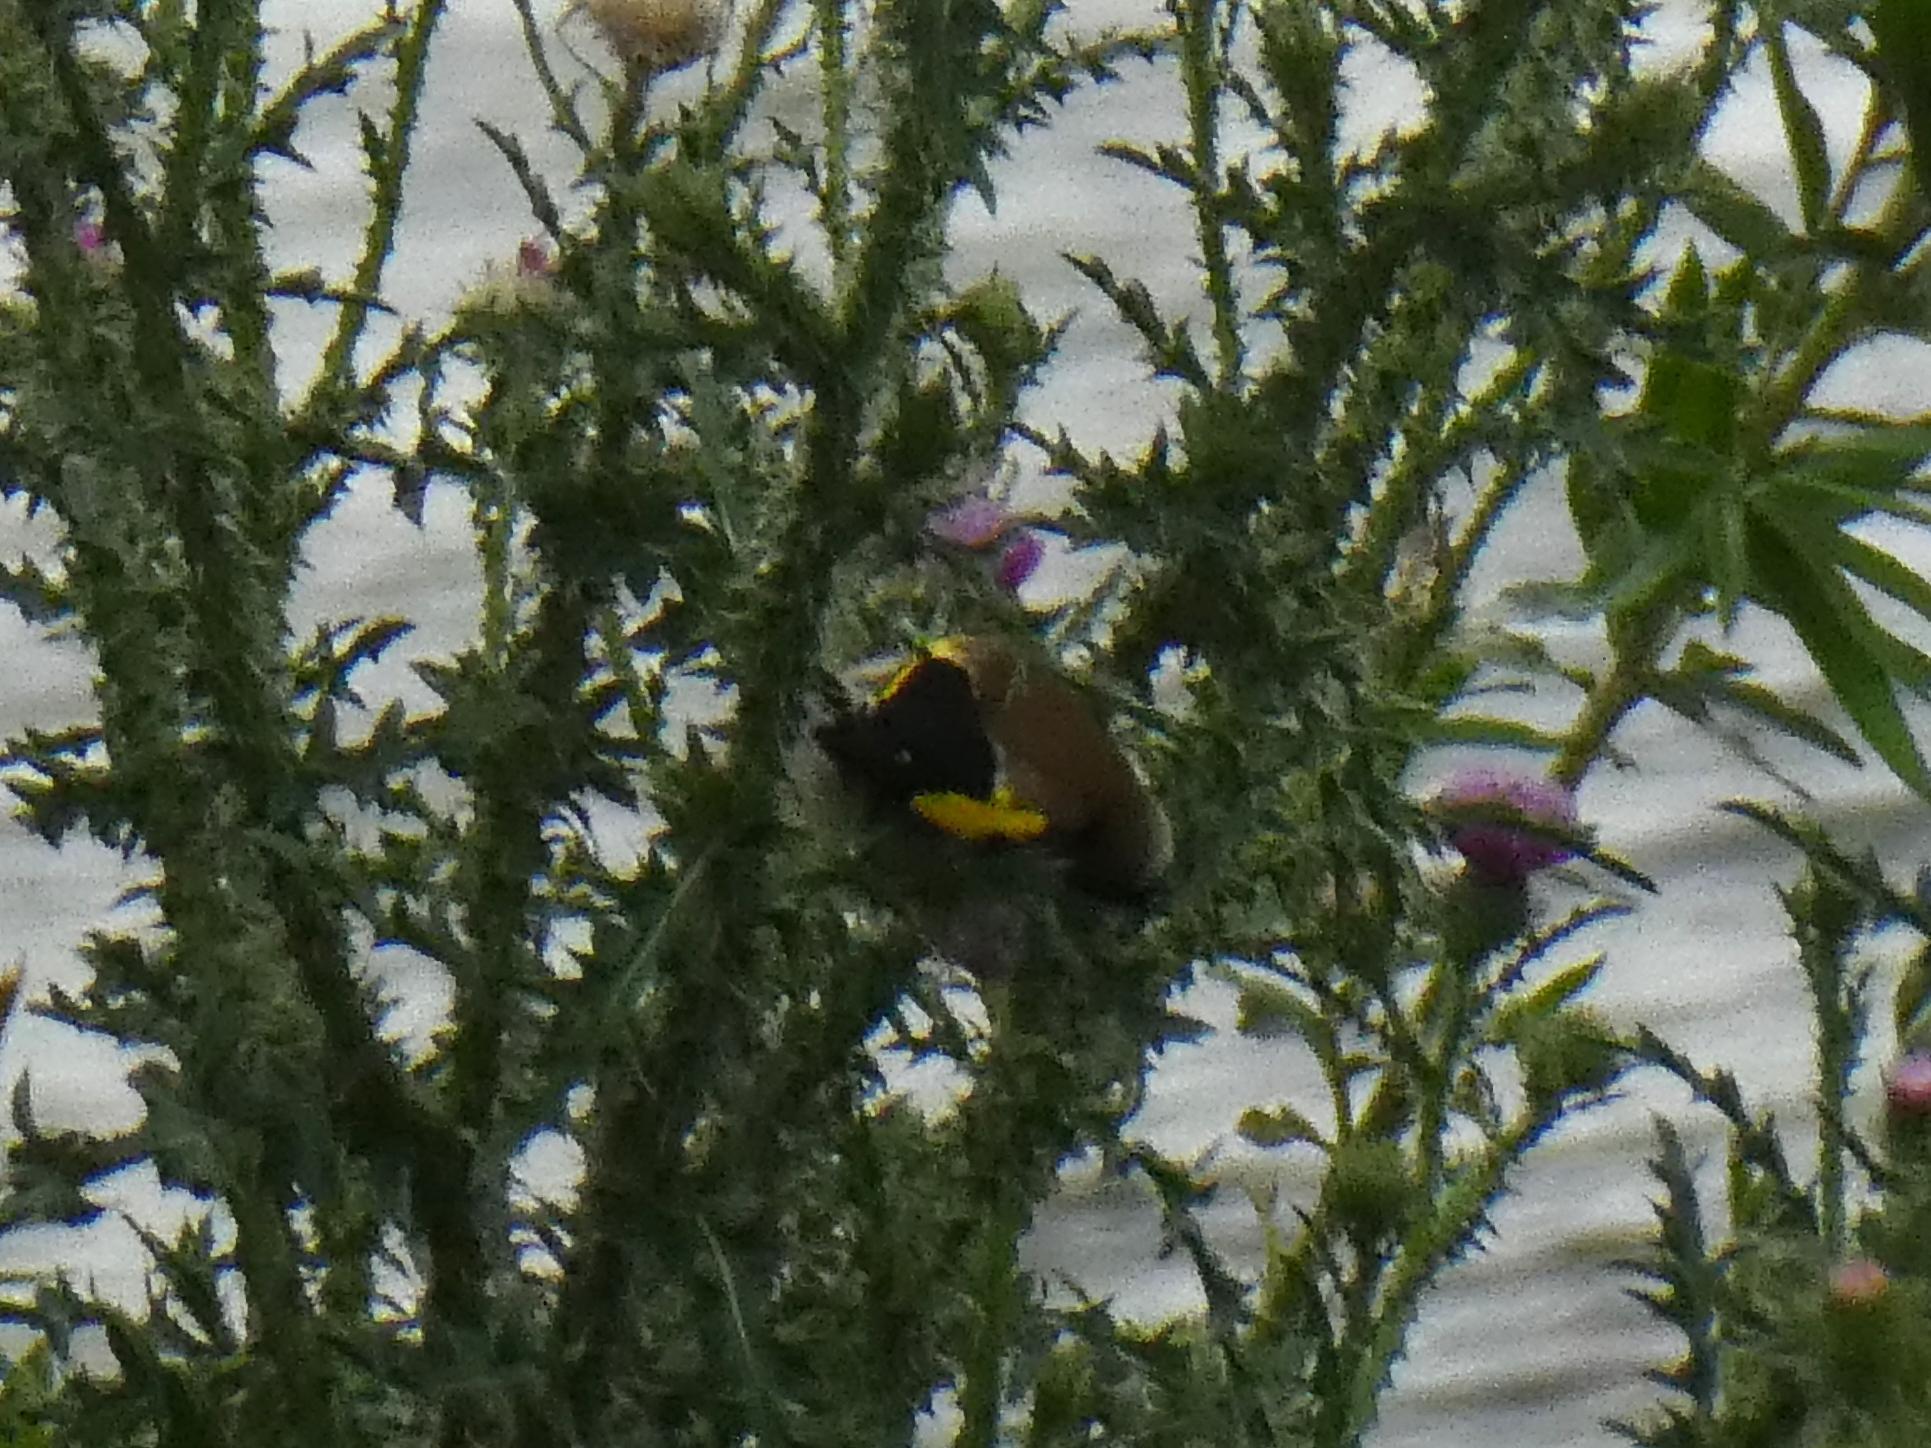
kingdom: Animalia
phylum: Chordata
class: Aves
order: Passeriformes
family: Fringillidae
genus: Carduelis
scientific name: Carduelis carduelis
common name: European goldfinch
